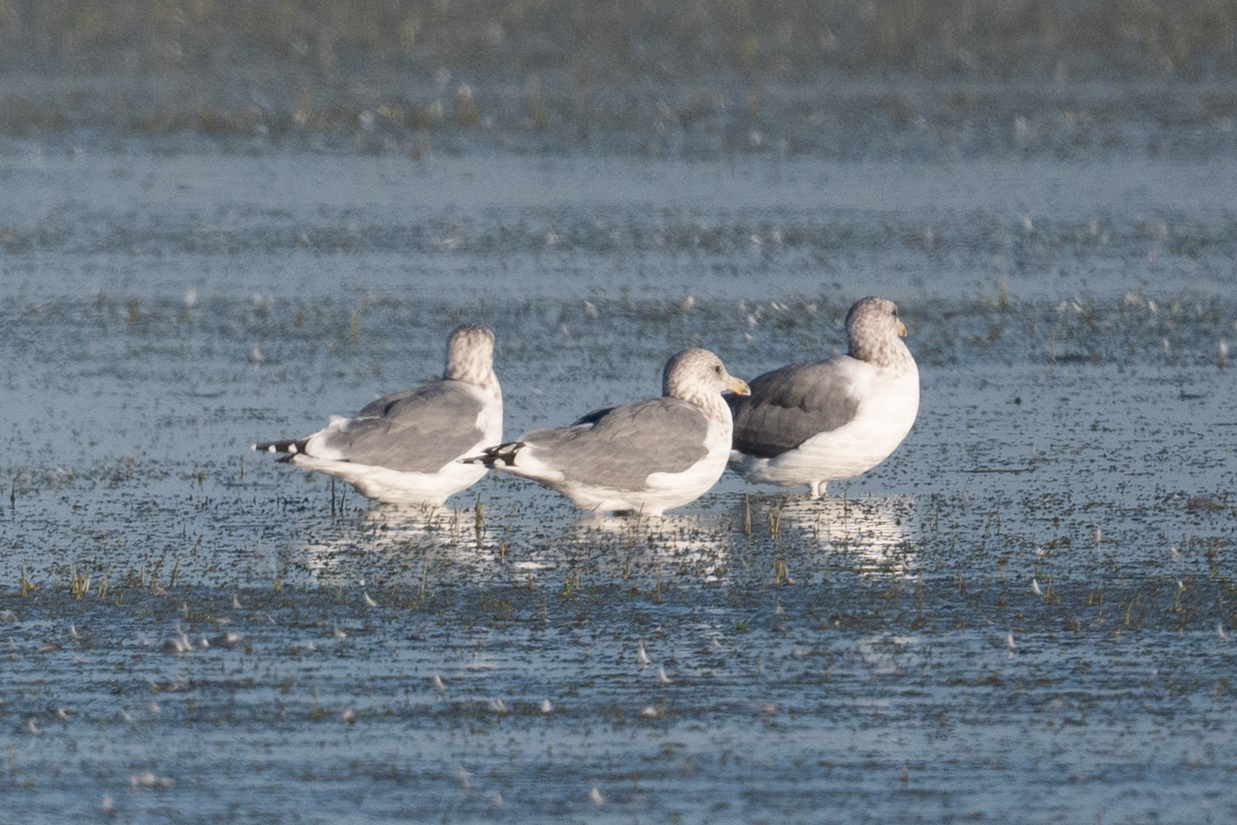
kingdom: Animalia
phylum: Chordata
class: Aves
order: Charadriiformes
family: Laridae
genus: Larus
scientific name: Larus californicus
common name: California gull
